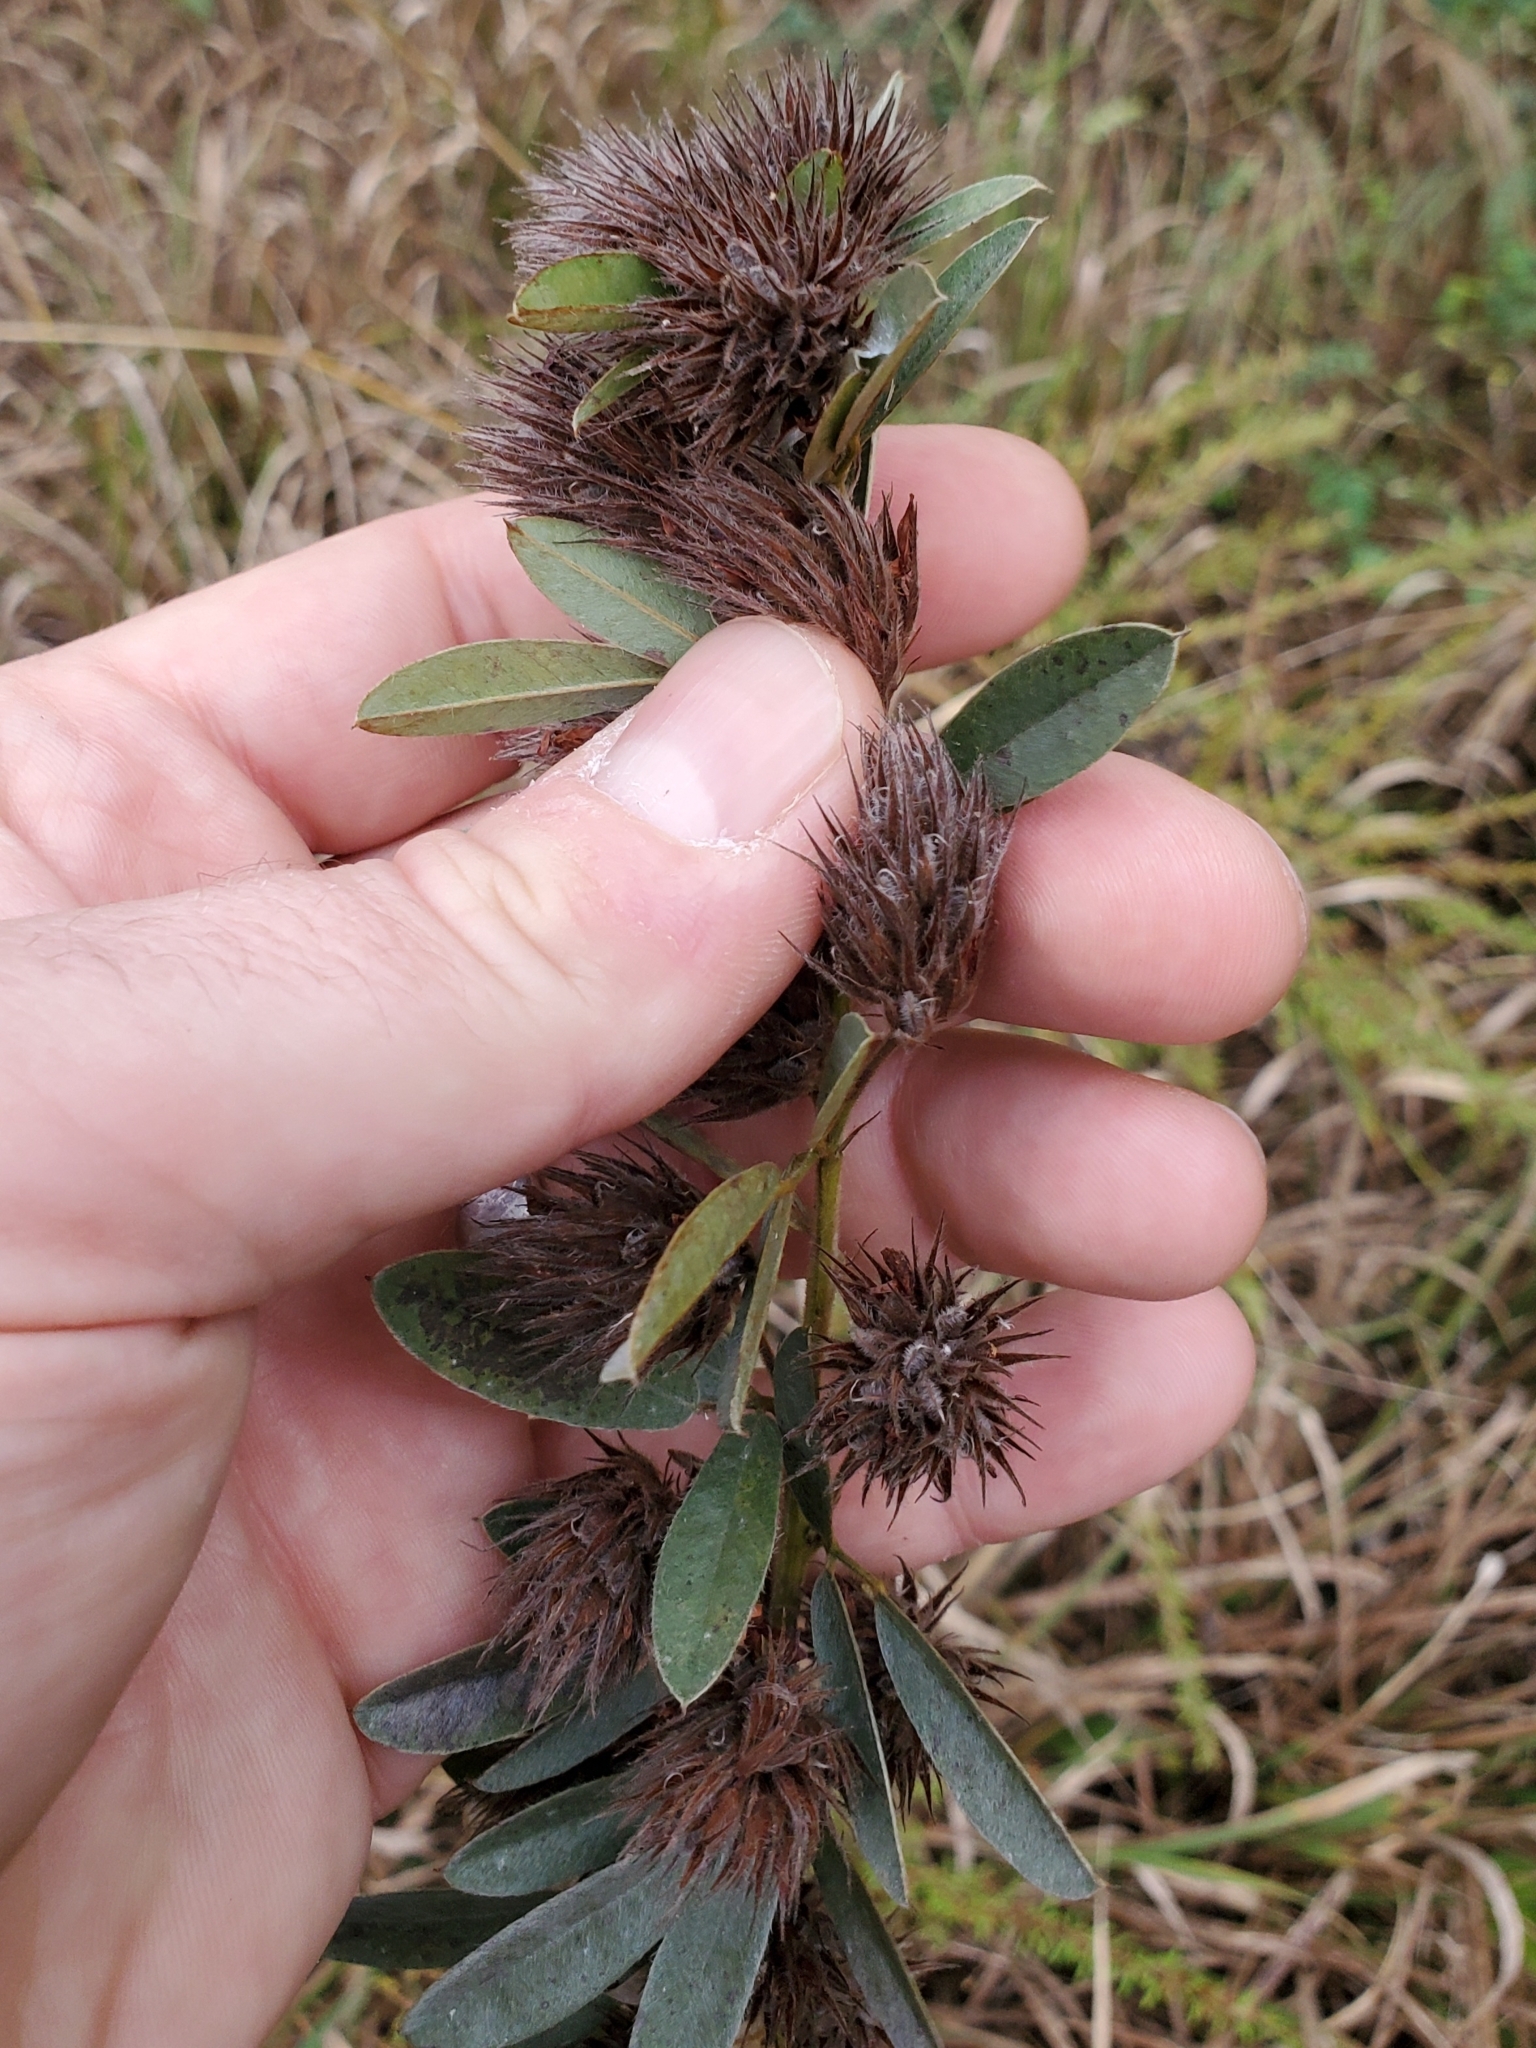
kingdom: Plantae
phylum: Tracheophyta
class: Magnoliopsida
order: Fabales
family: Fabaceae
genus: Lespedeza
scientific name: Lespedeza capitata
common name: Dusty clover
